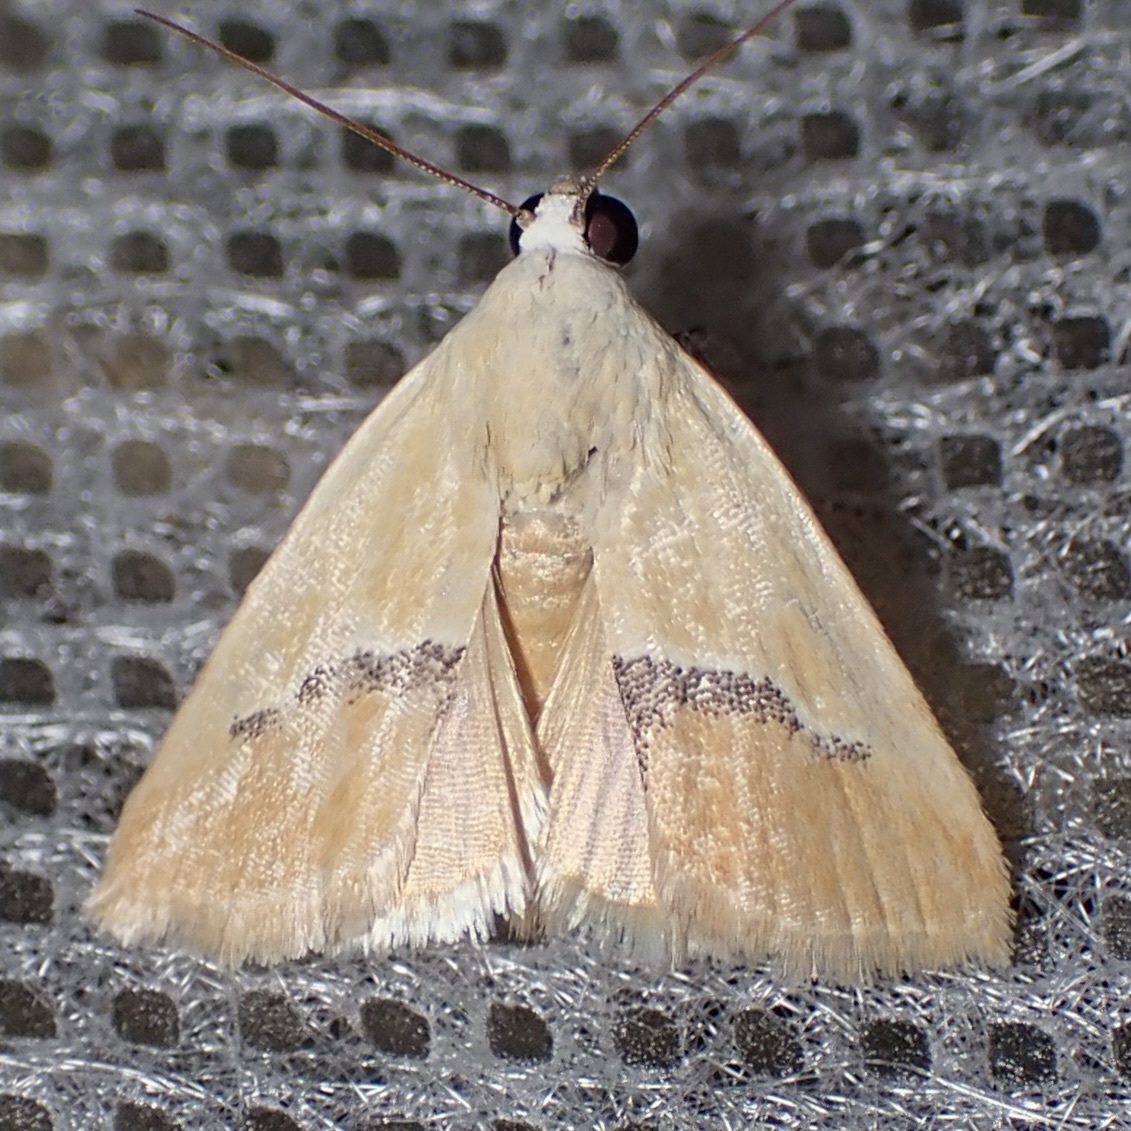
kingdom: Animalia
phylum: Arthropoda
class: Insecta
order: Lepidoptera
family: Noctuidae
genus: Ponometia
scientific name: Ponometia venustula
